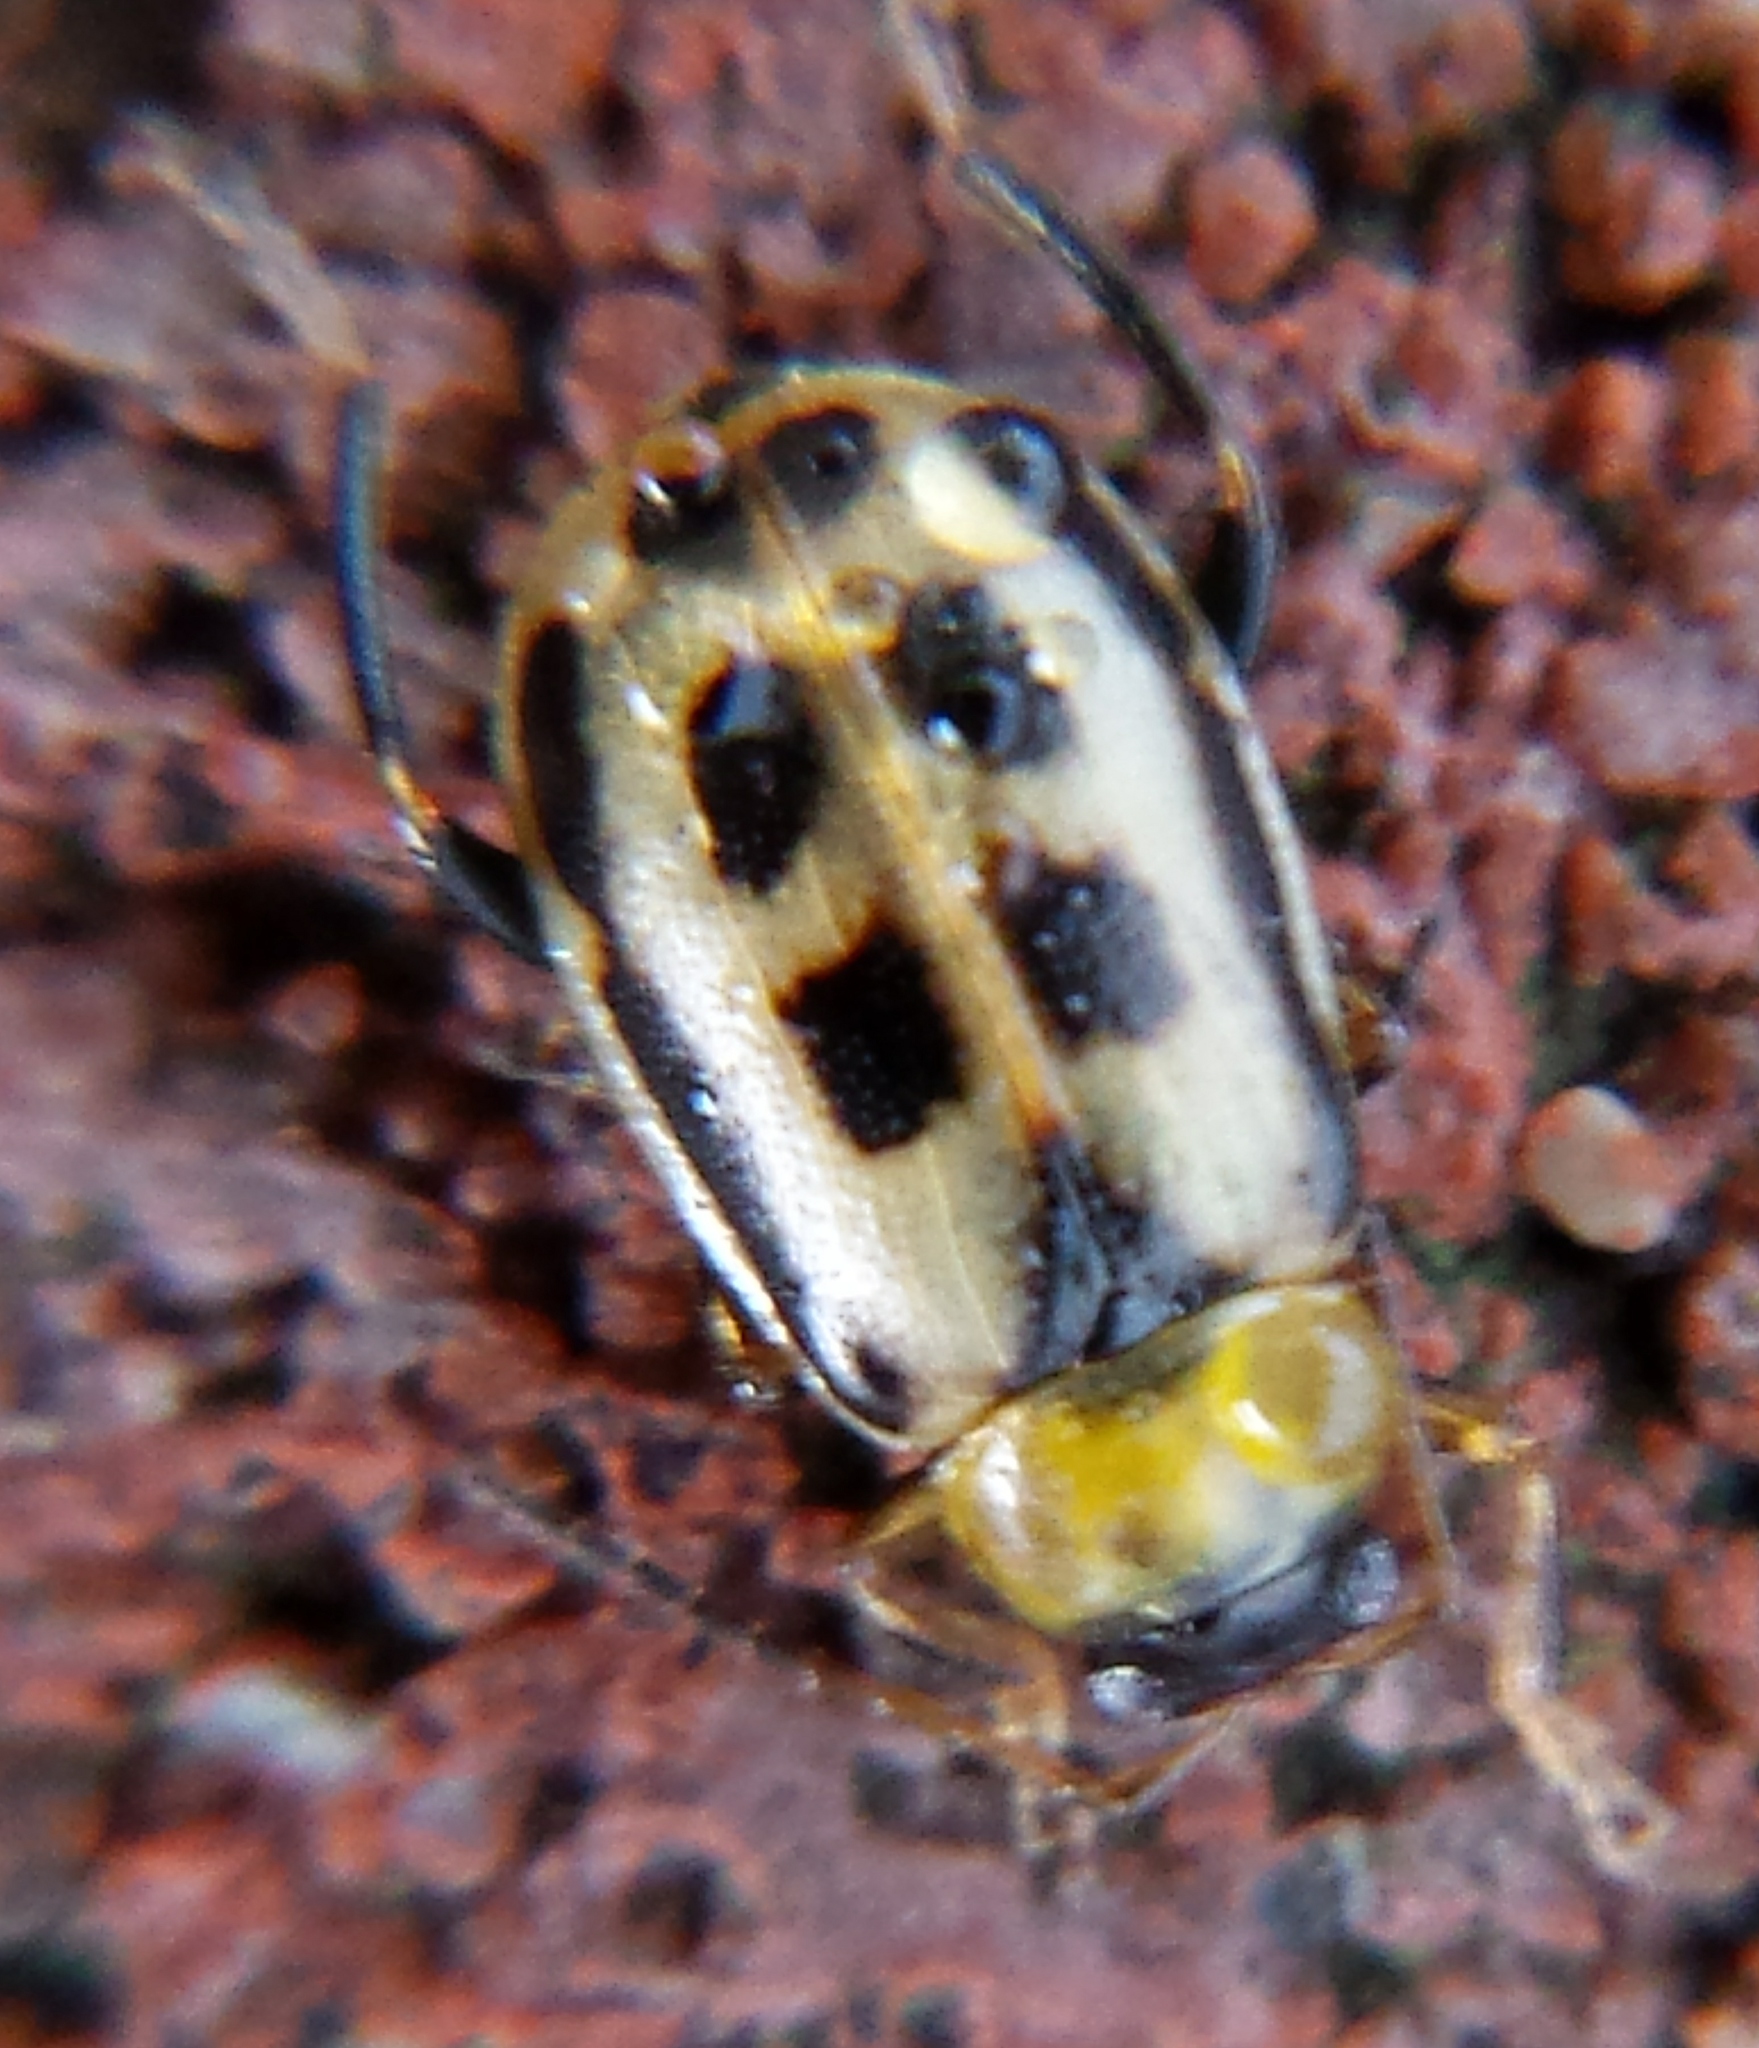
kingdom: Animalia
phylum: Arthropoda
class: Insecta
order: Coleoptera
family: Chrysomelidae
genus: Cerotoma
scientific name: Cerotoma trifurcata
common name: Bean leaf beetle
